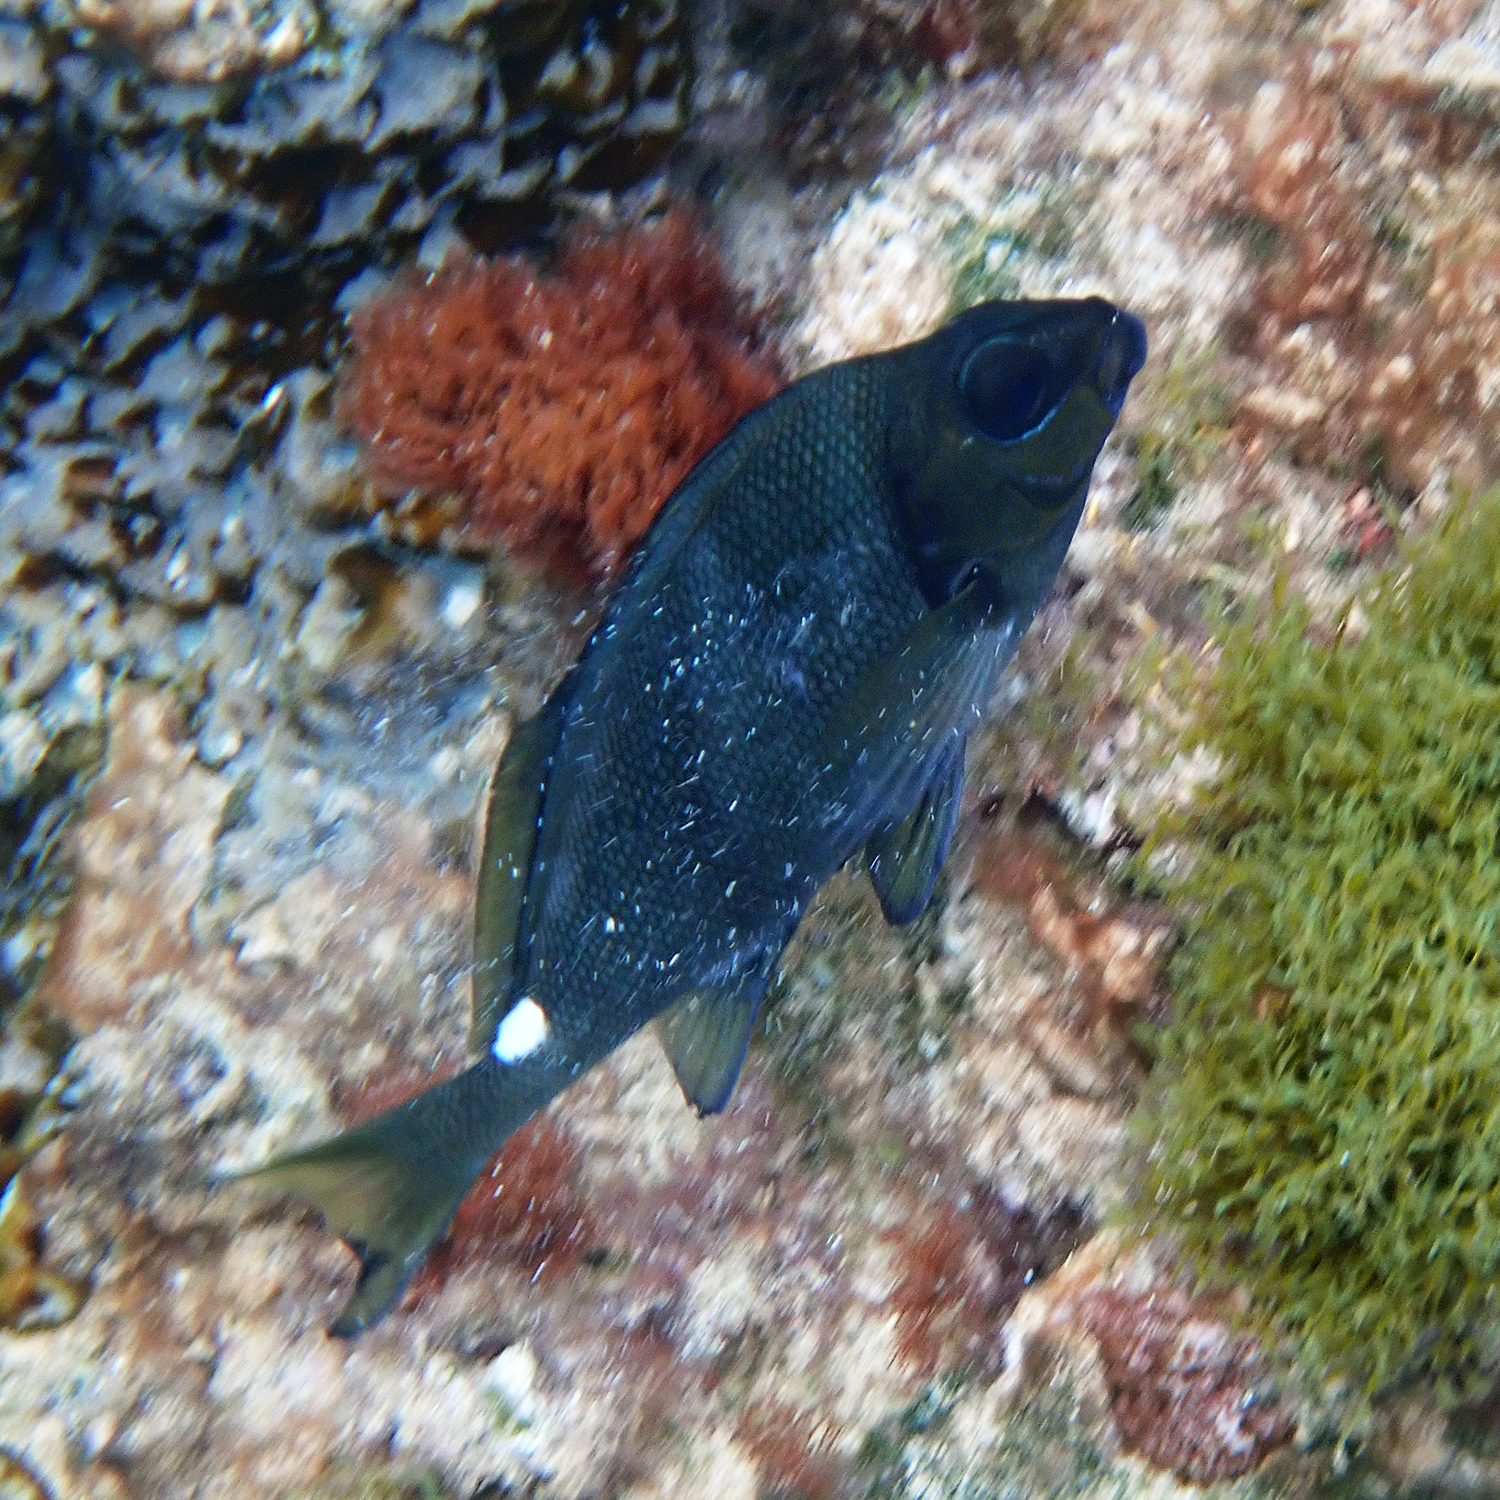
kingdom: Animalia
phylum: Chordata
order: Perciformes
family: Latridae
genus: Morwong
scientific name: Morwong ephippium
